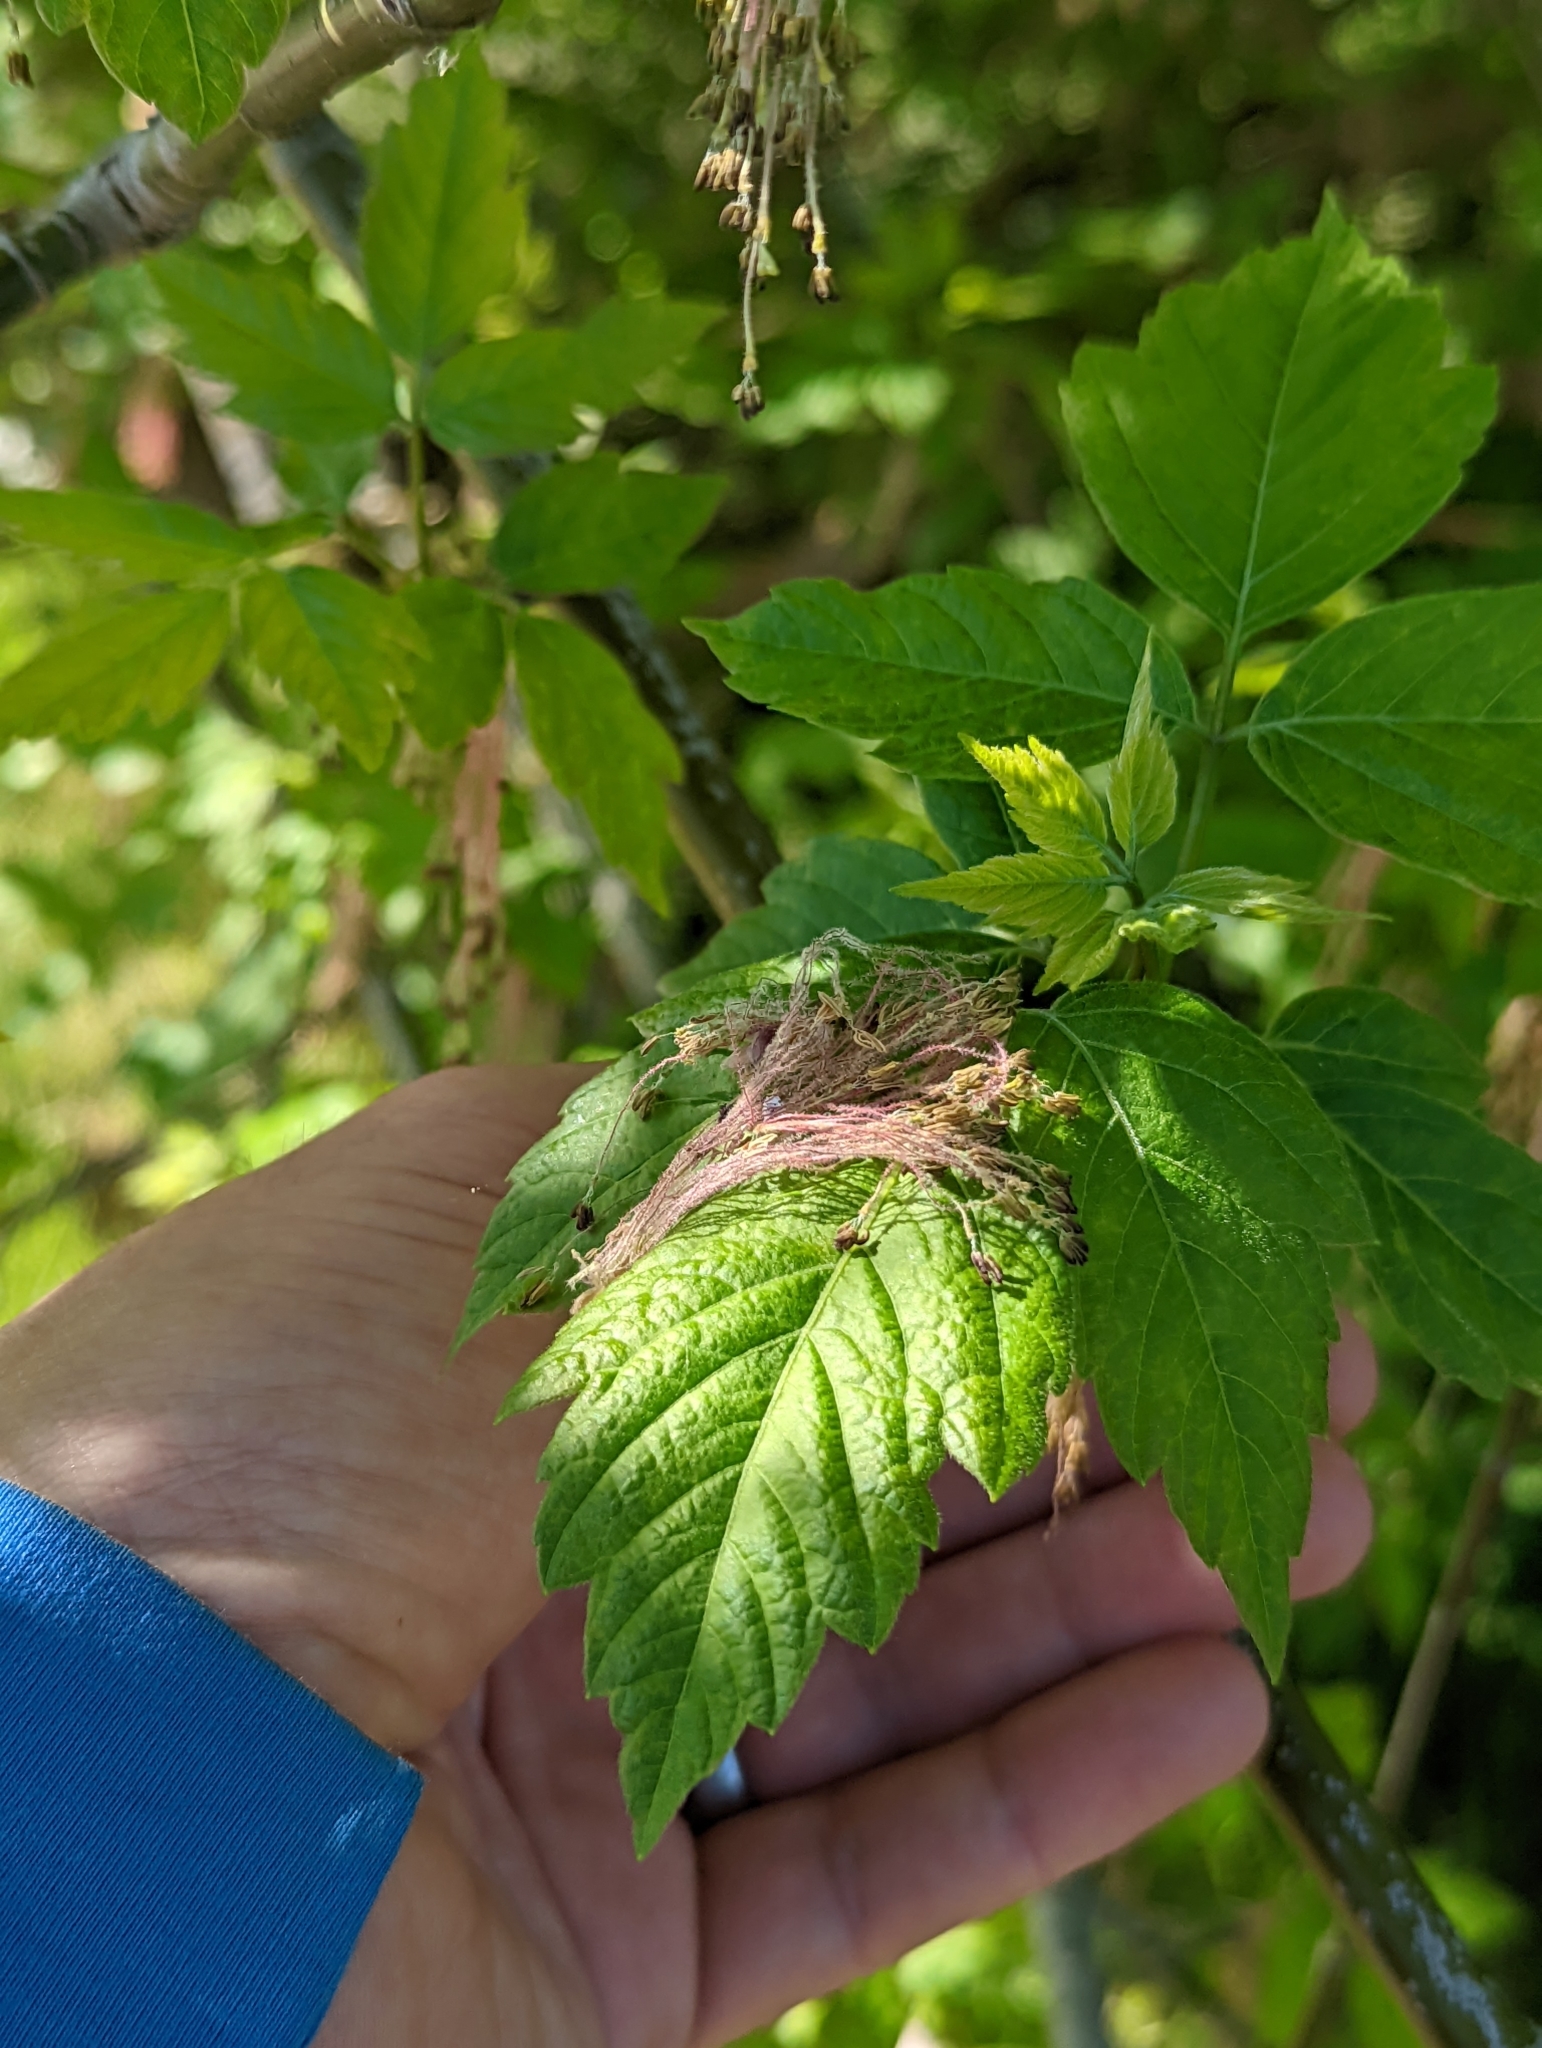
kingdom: Plantae
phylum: Tracheophyta
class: Magnoliopsida
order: Sapindales
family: Sapindaceae
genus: Acer
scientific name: Acer negundo
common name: Ashleaf maple
